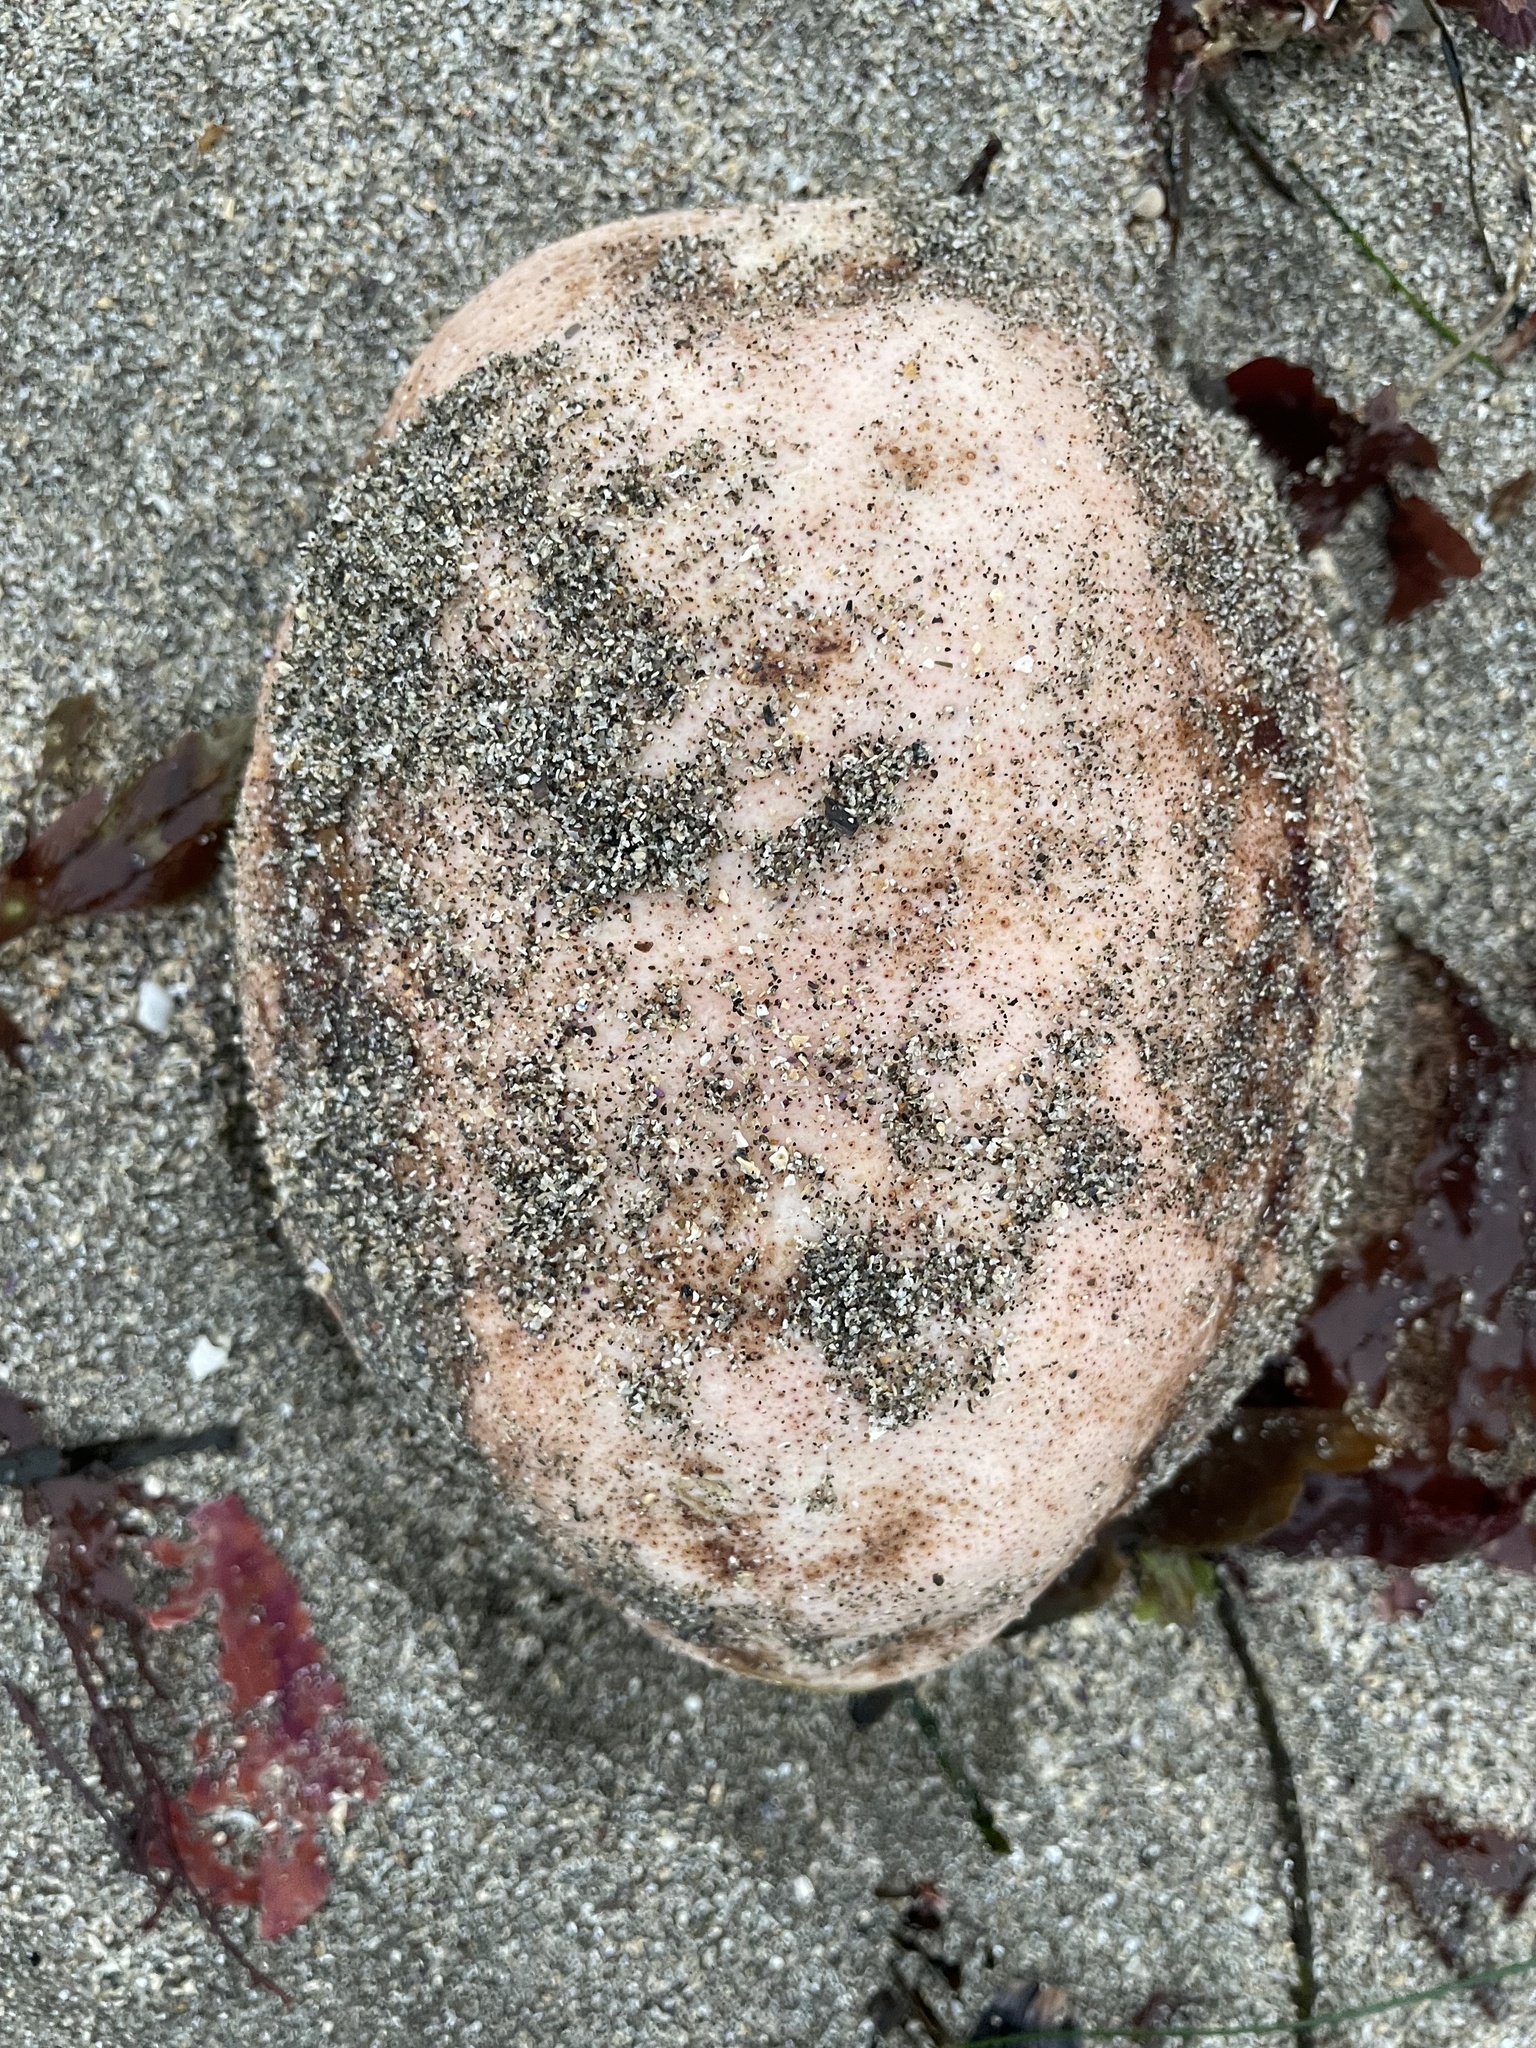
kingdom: Animalia
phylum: Mollusca
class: Polyplacophora
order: Chitonida
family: Acanthochitonidae
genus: Cryptochiton
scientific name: Cryptochiton stelleri
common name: Giant pacific chiton
